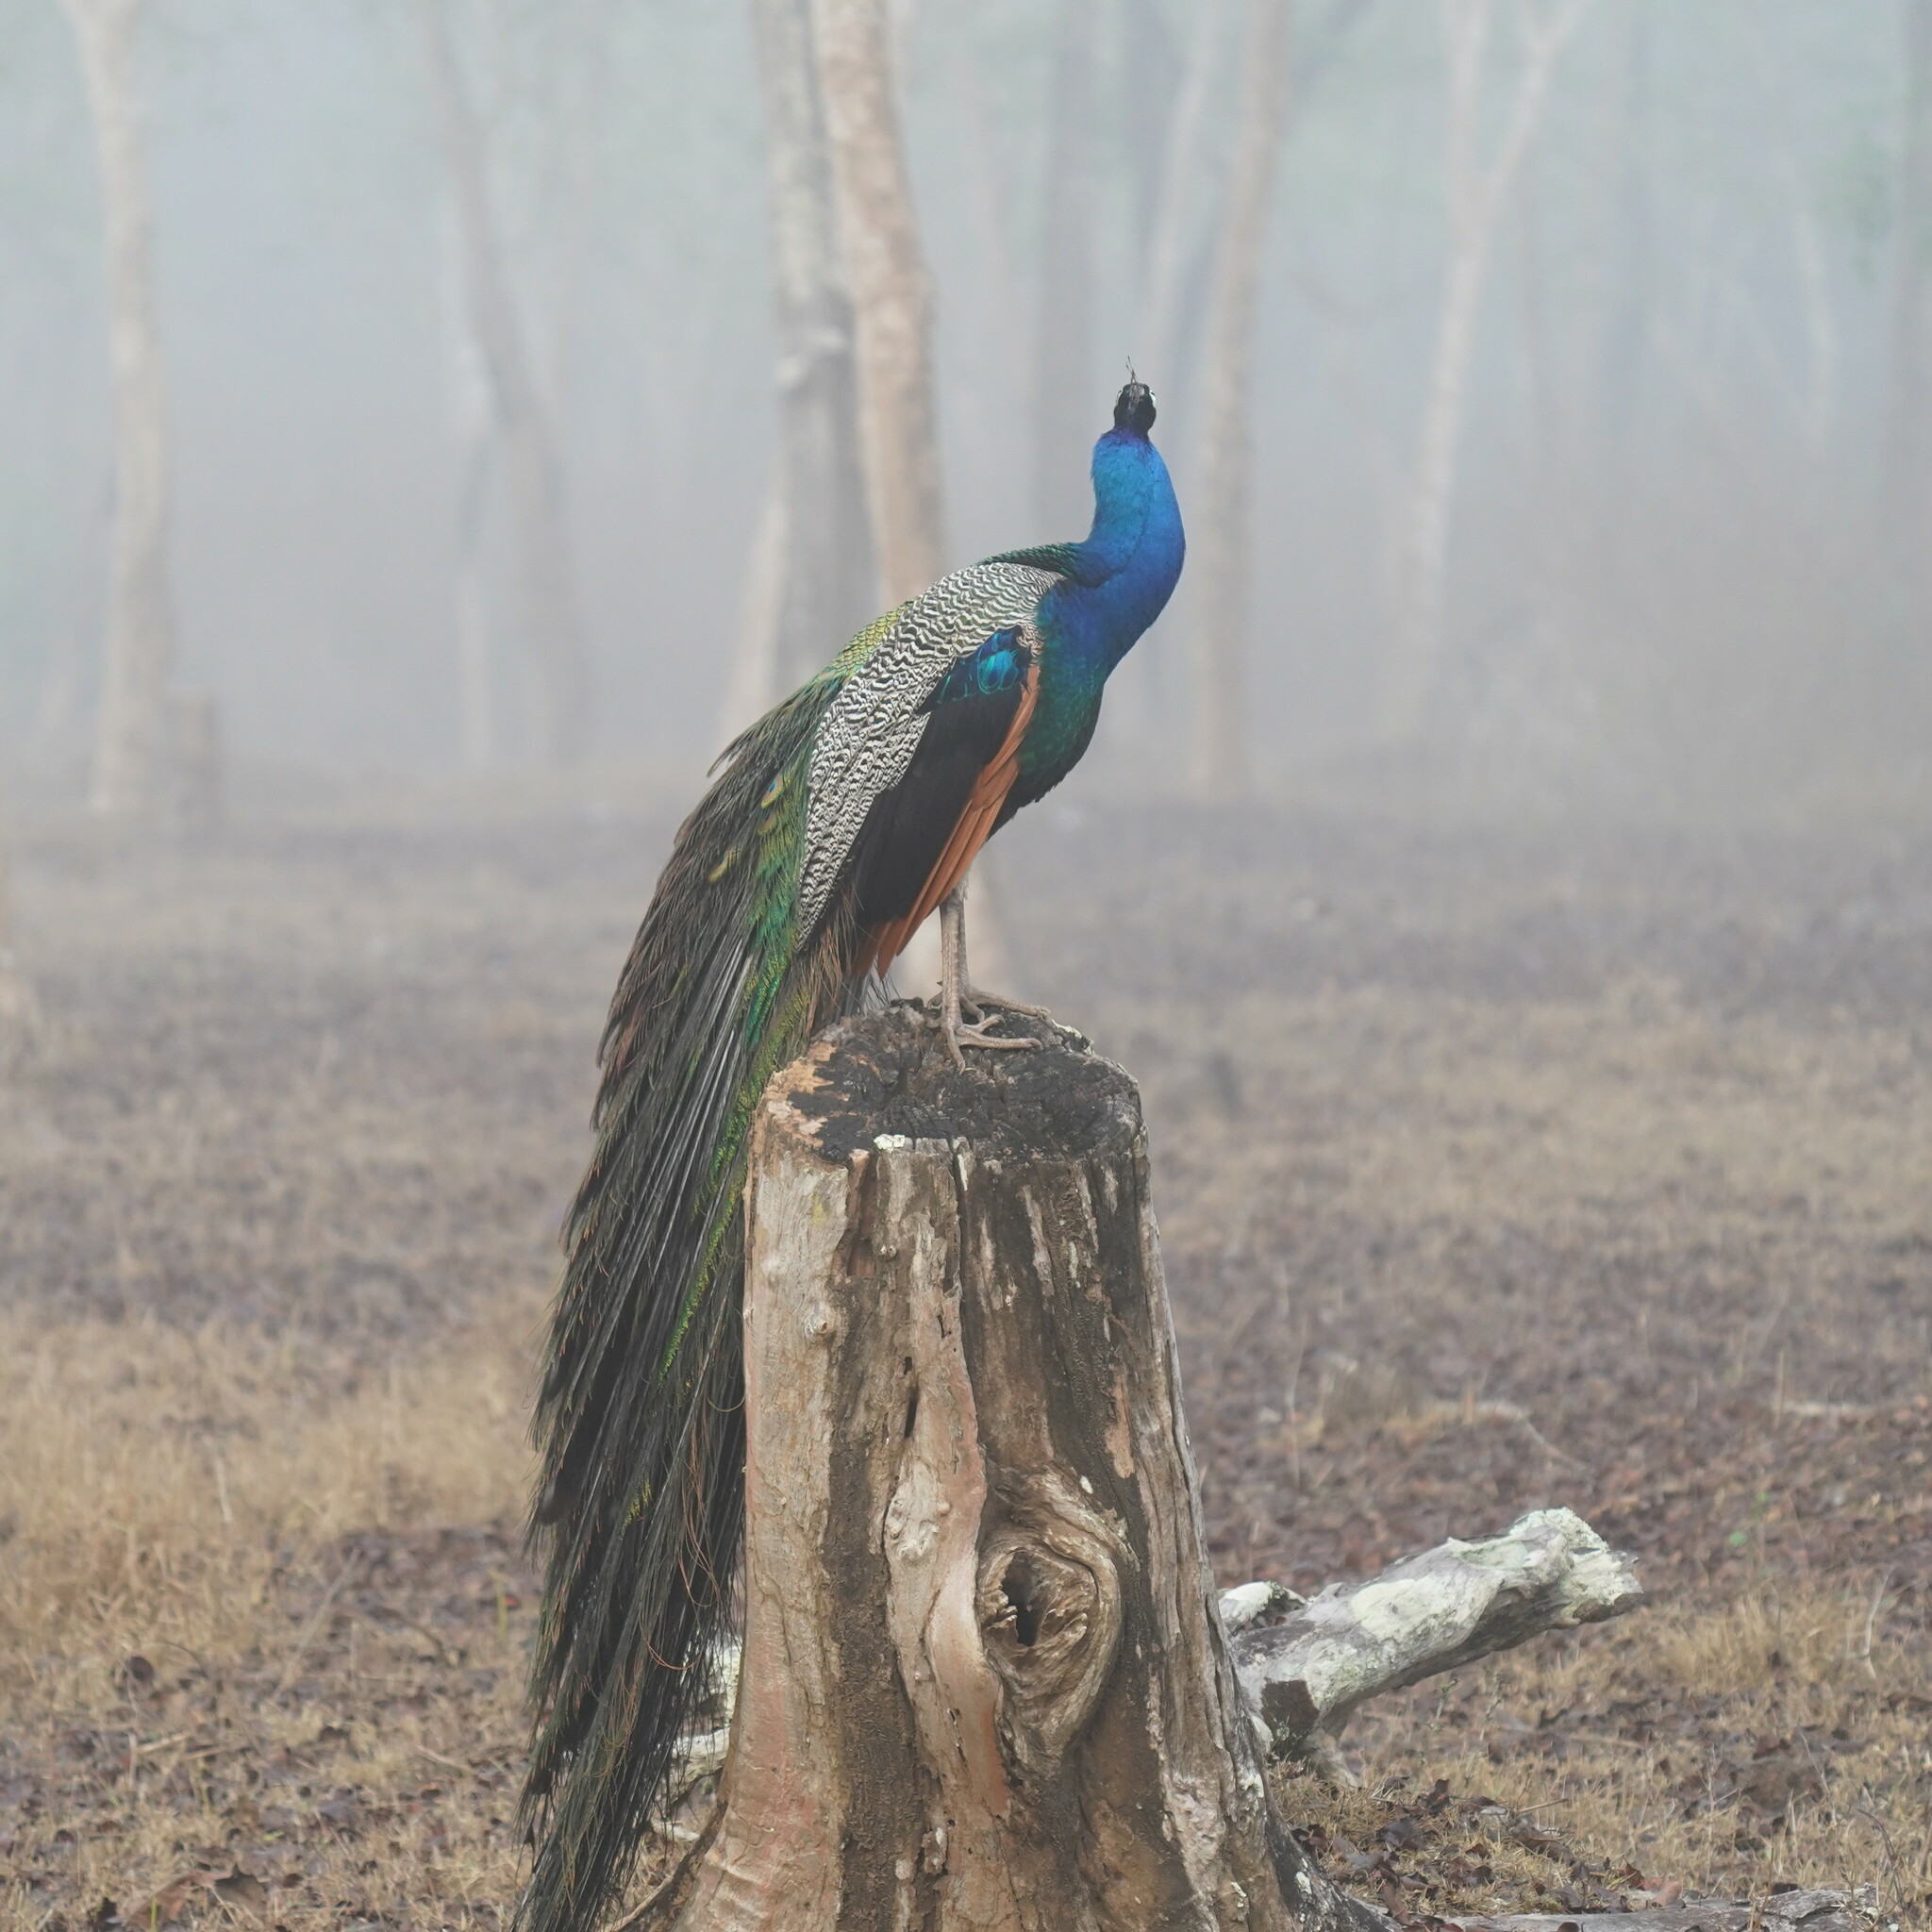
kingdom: Animalia
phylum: Chordata
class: Aves
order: Galliformes
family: Phasianidae
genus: Pavo
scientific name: Pavo cristatus
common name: Indian peafowl
